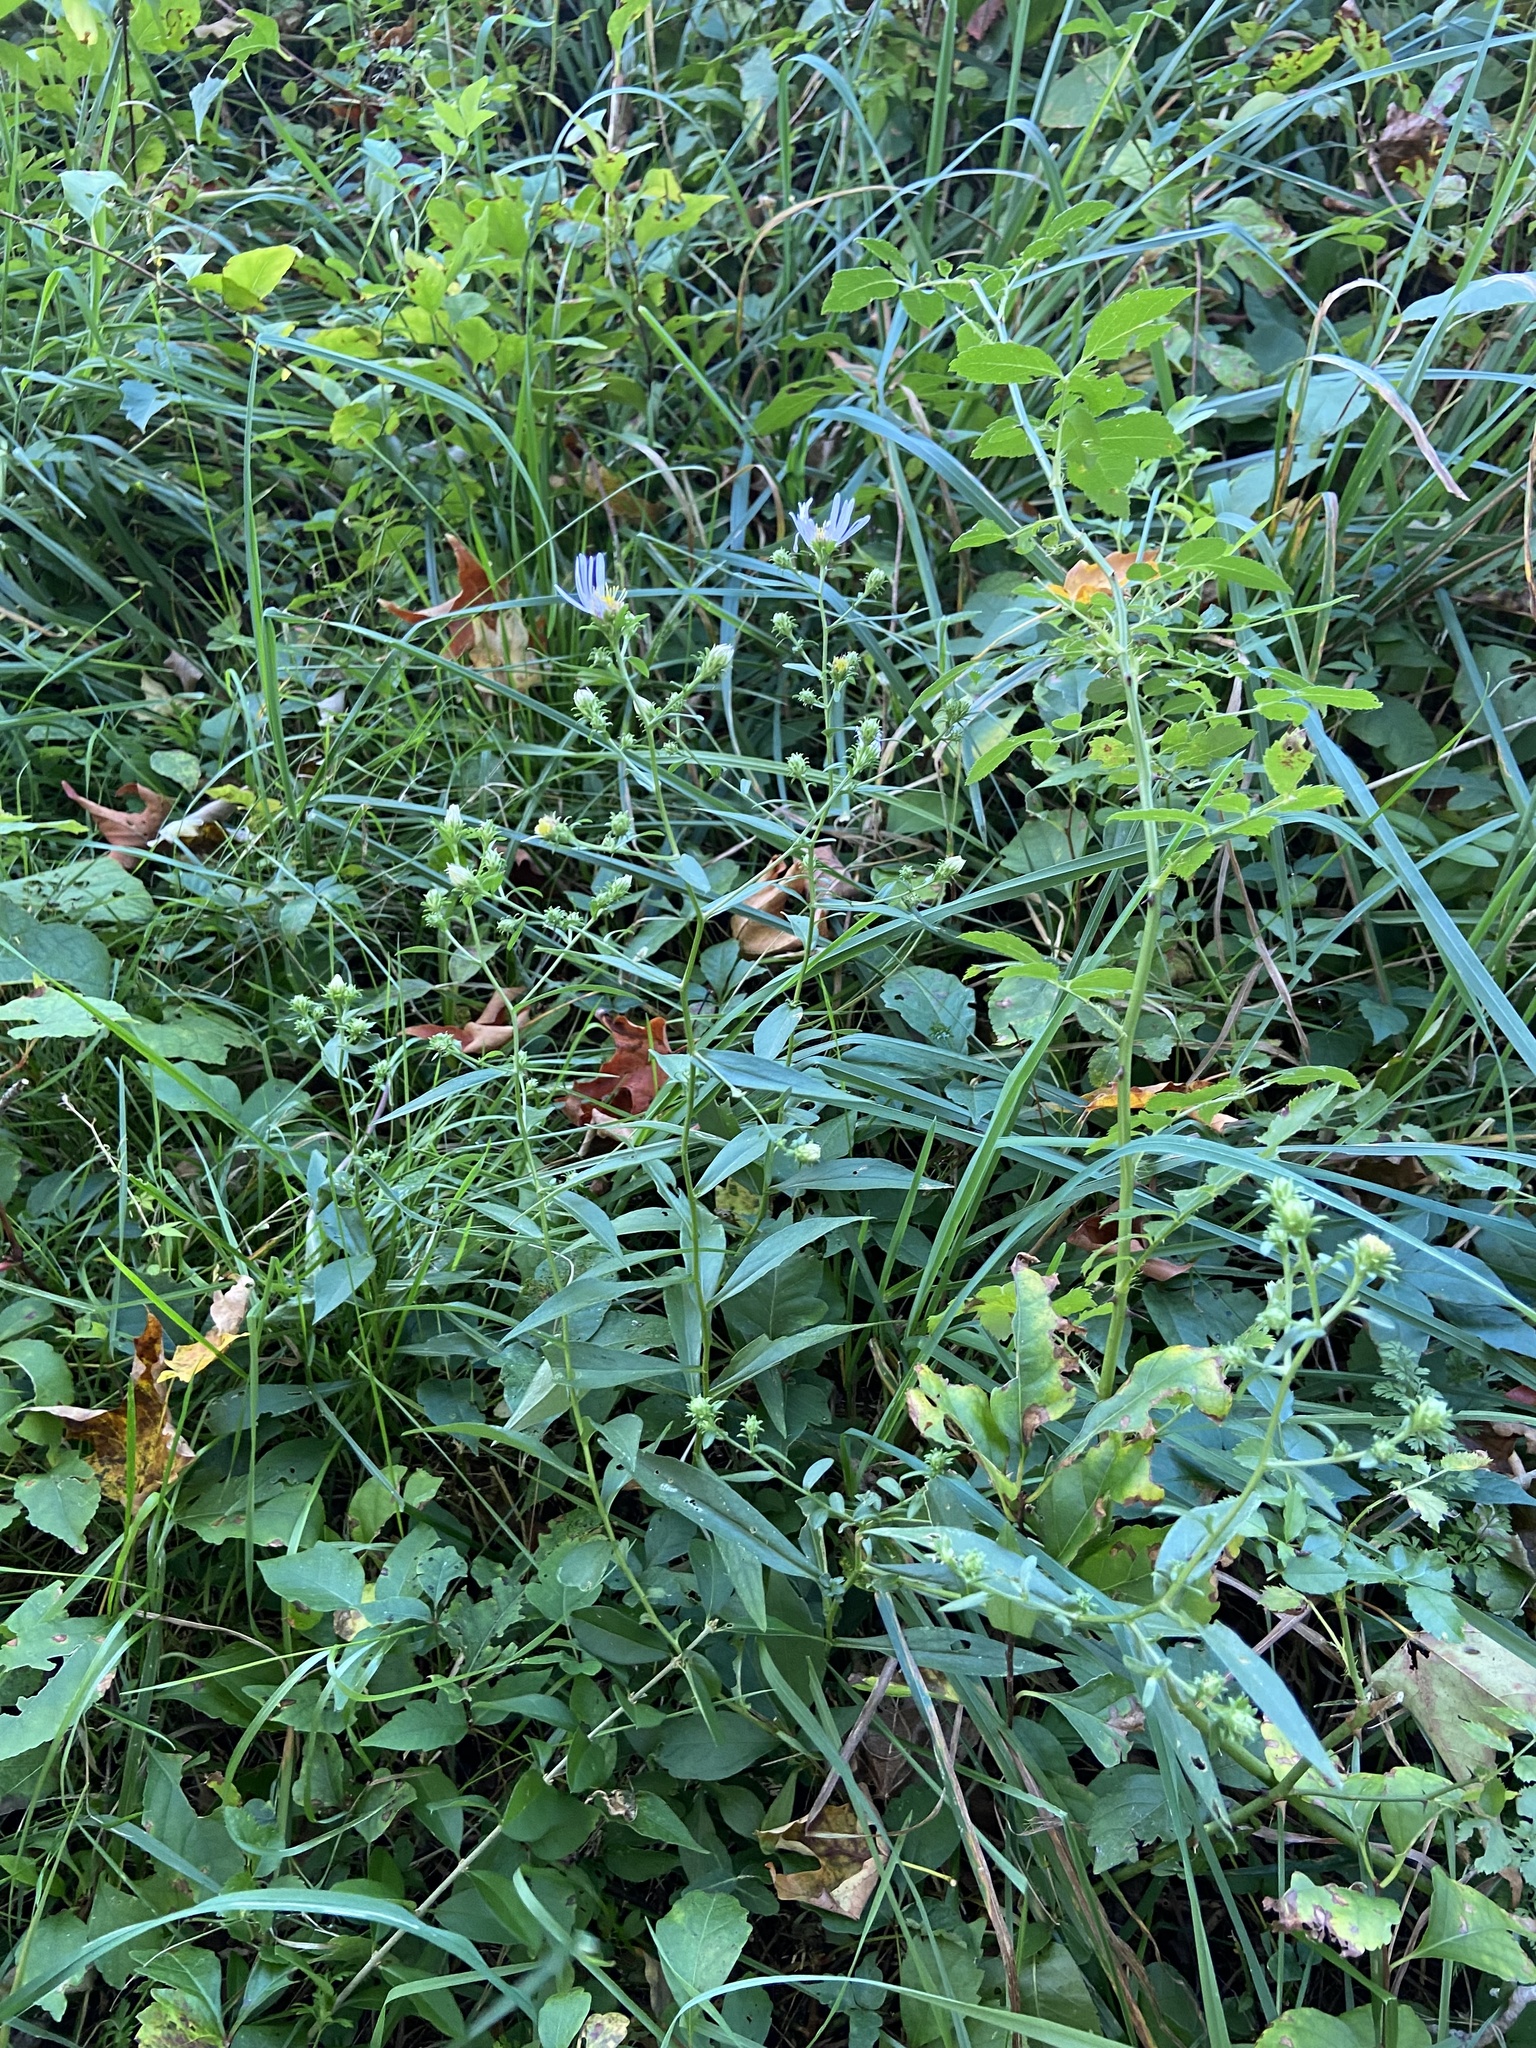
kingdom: Plantae
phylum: Tracheophyta
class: Magnoliopsida
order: Asterales
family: Asteraceae
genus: Symphyotrichum
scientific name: Symphyotrichum novi-belgii
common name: Michaelmas daisy
